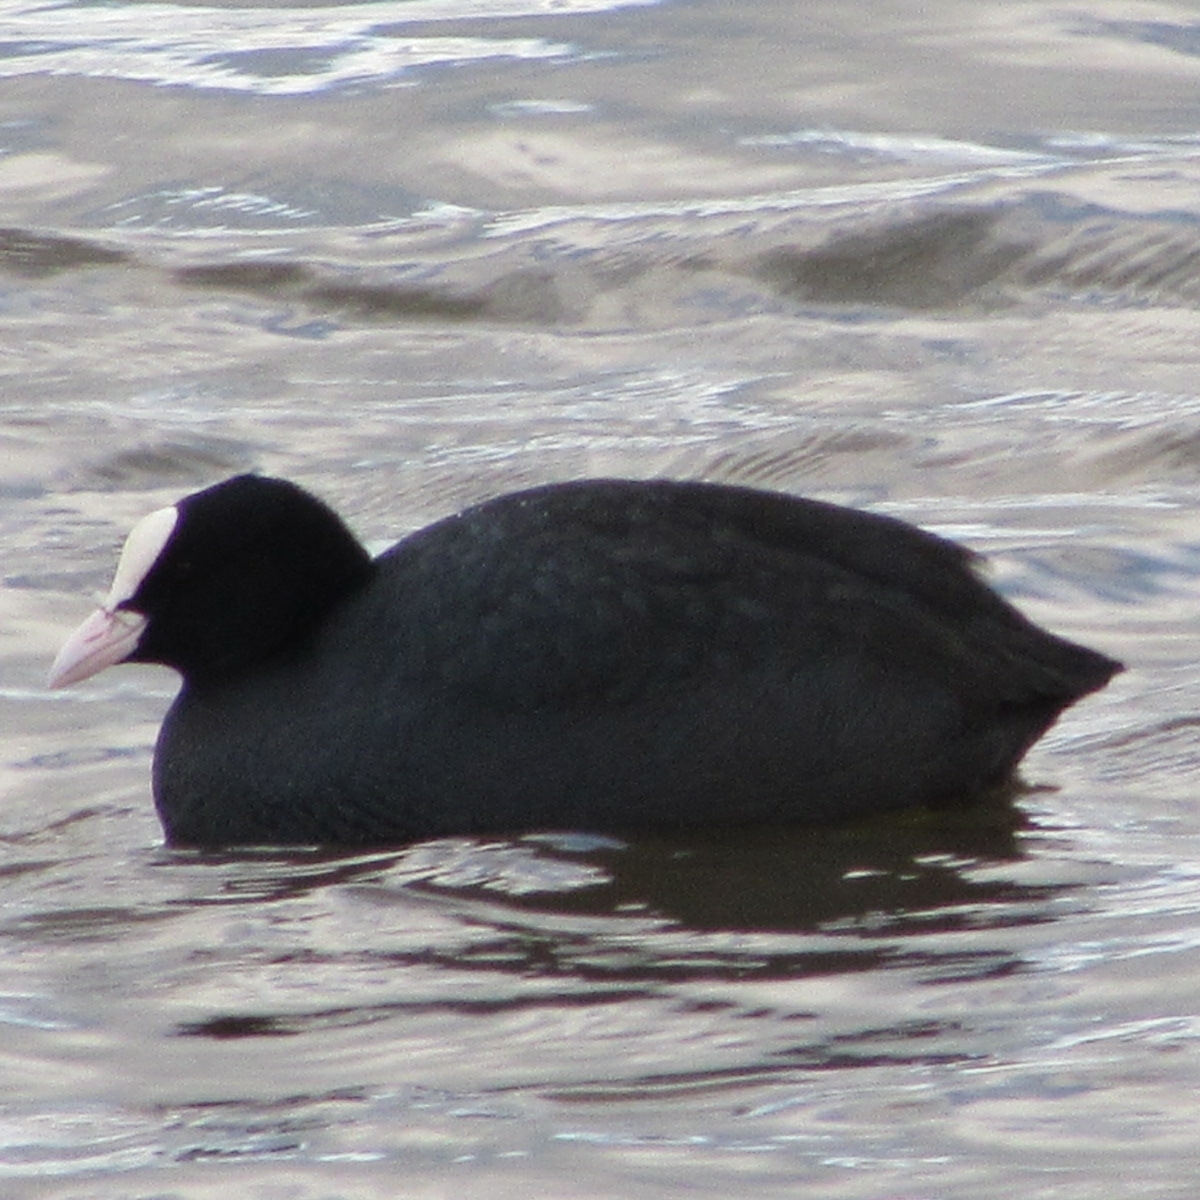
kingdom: Animalia
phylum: Chordata
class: Aves
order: Gruiformes
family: Rallidae
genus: Fulica
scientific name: Fulica atra
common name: Eurasian coot
